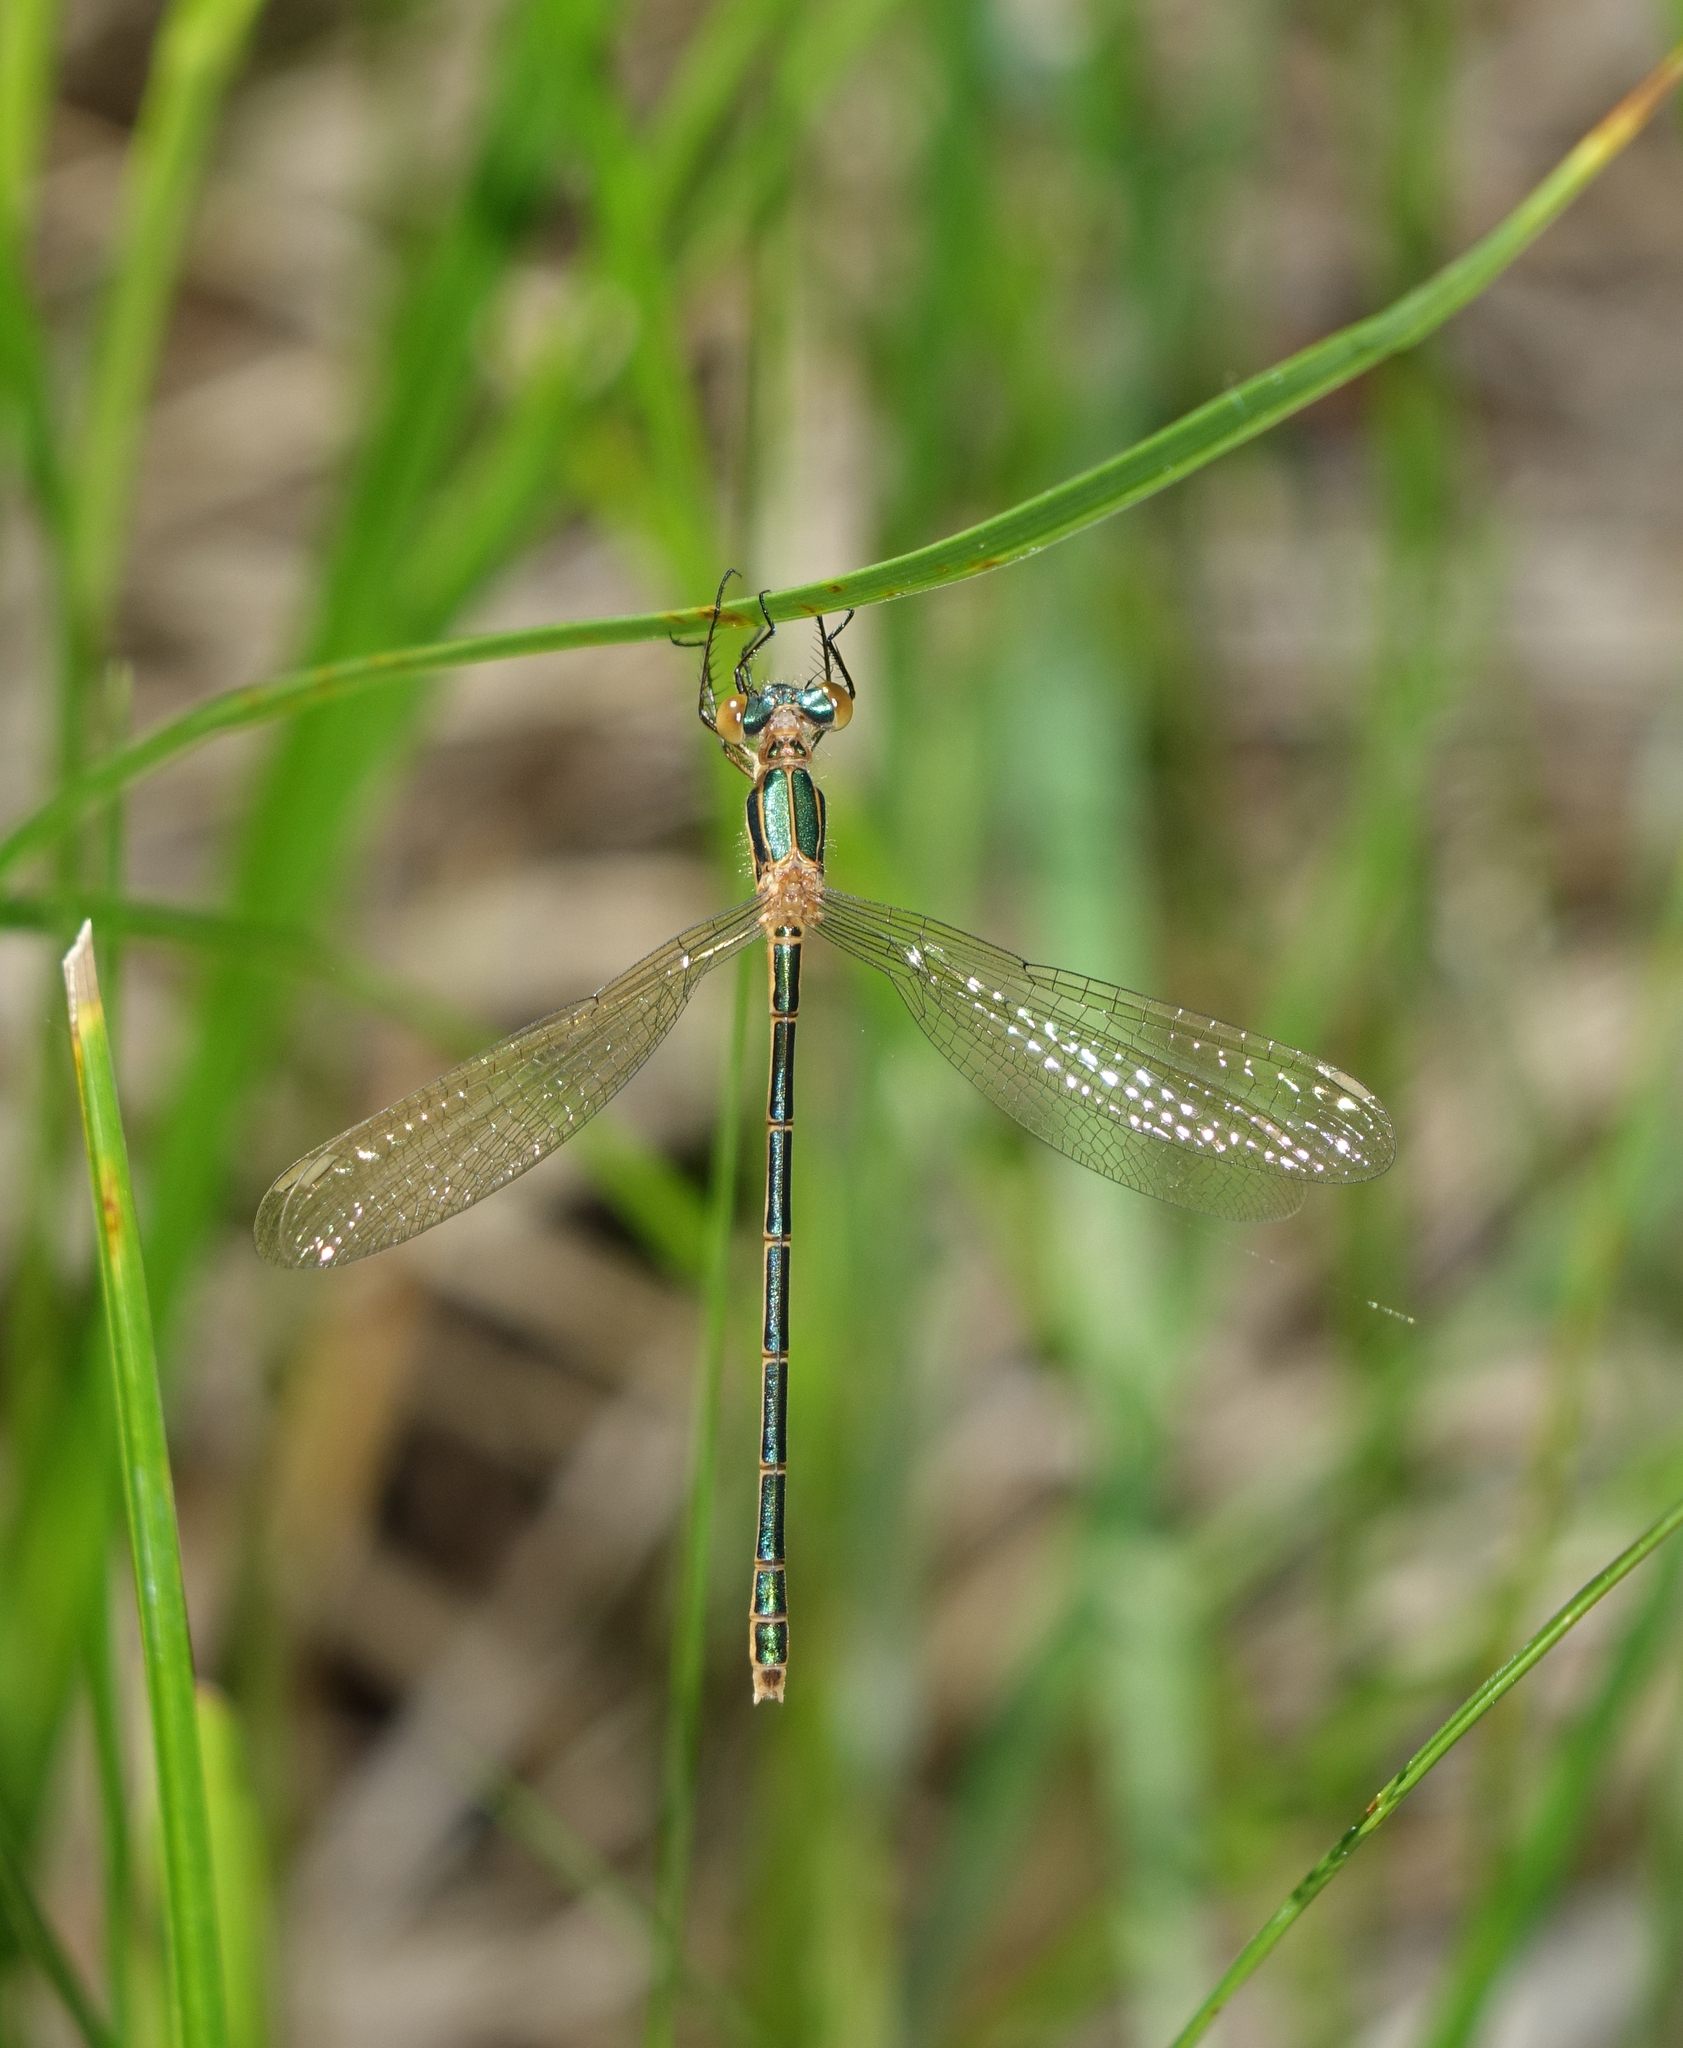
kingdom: Animalia
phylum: Arthropoda
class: Insecta
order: Odonata
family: Lestidae
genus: Lestes
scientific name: Lestes sponsa
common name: Common spreadwing
